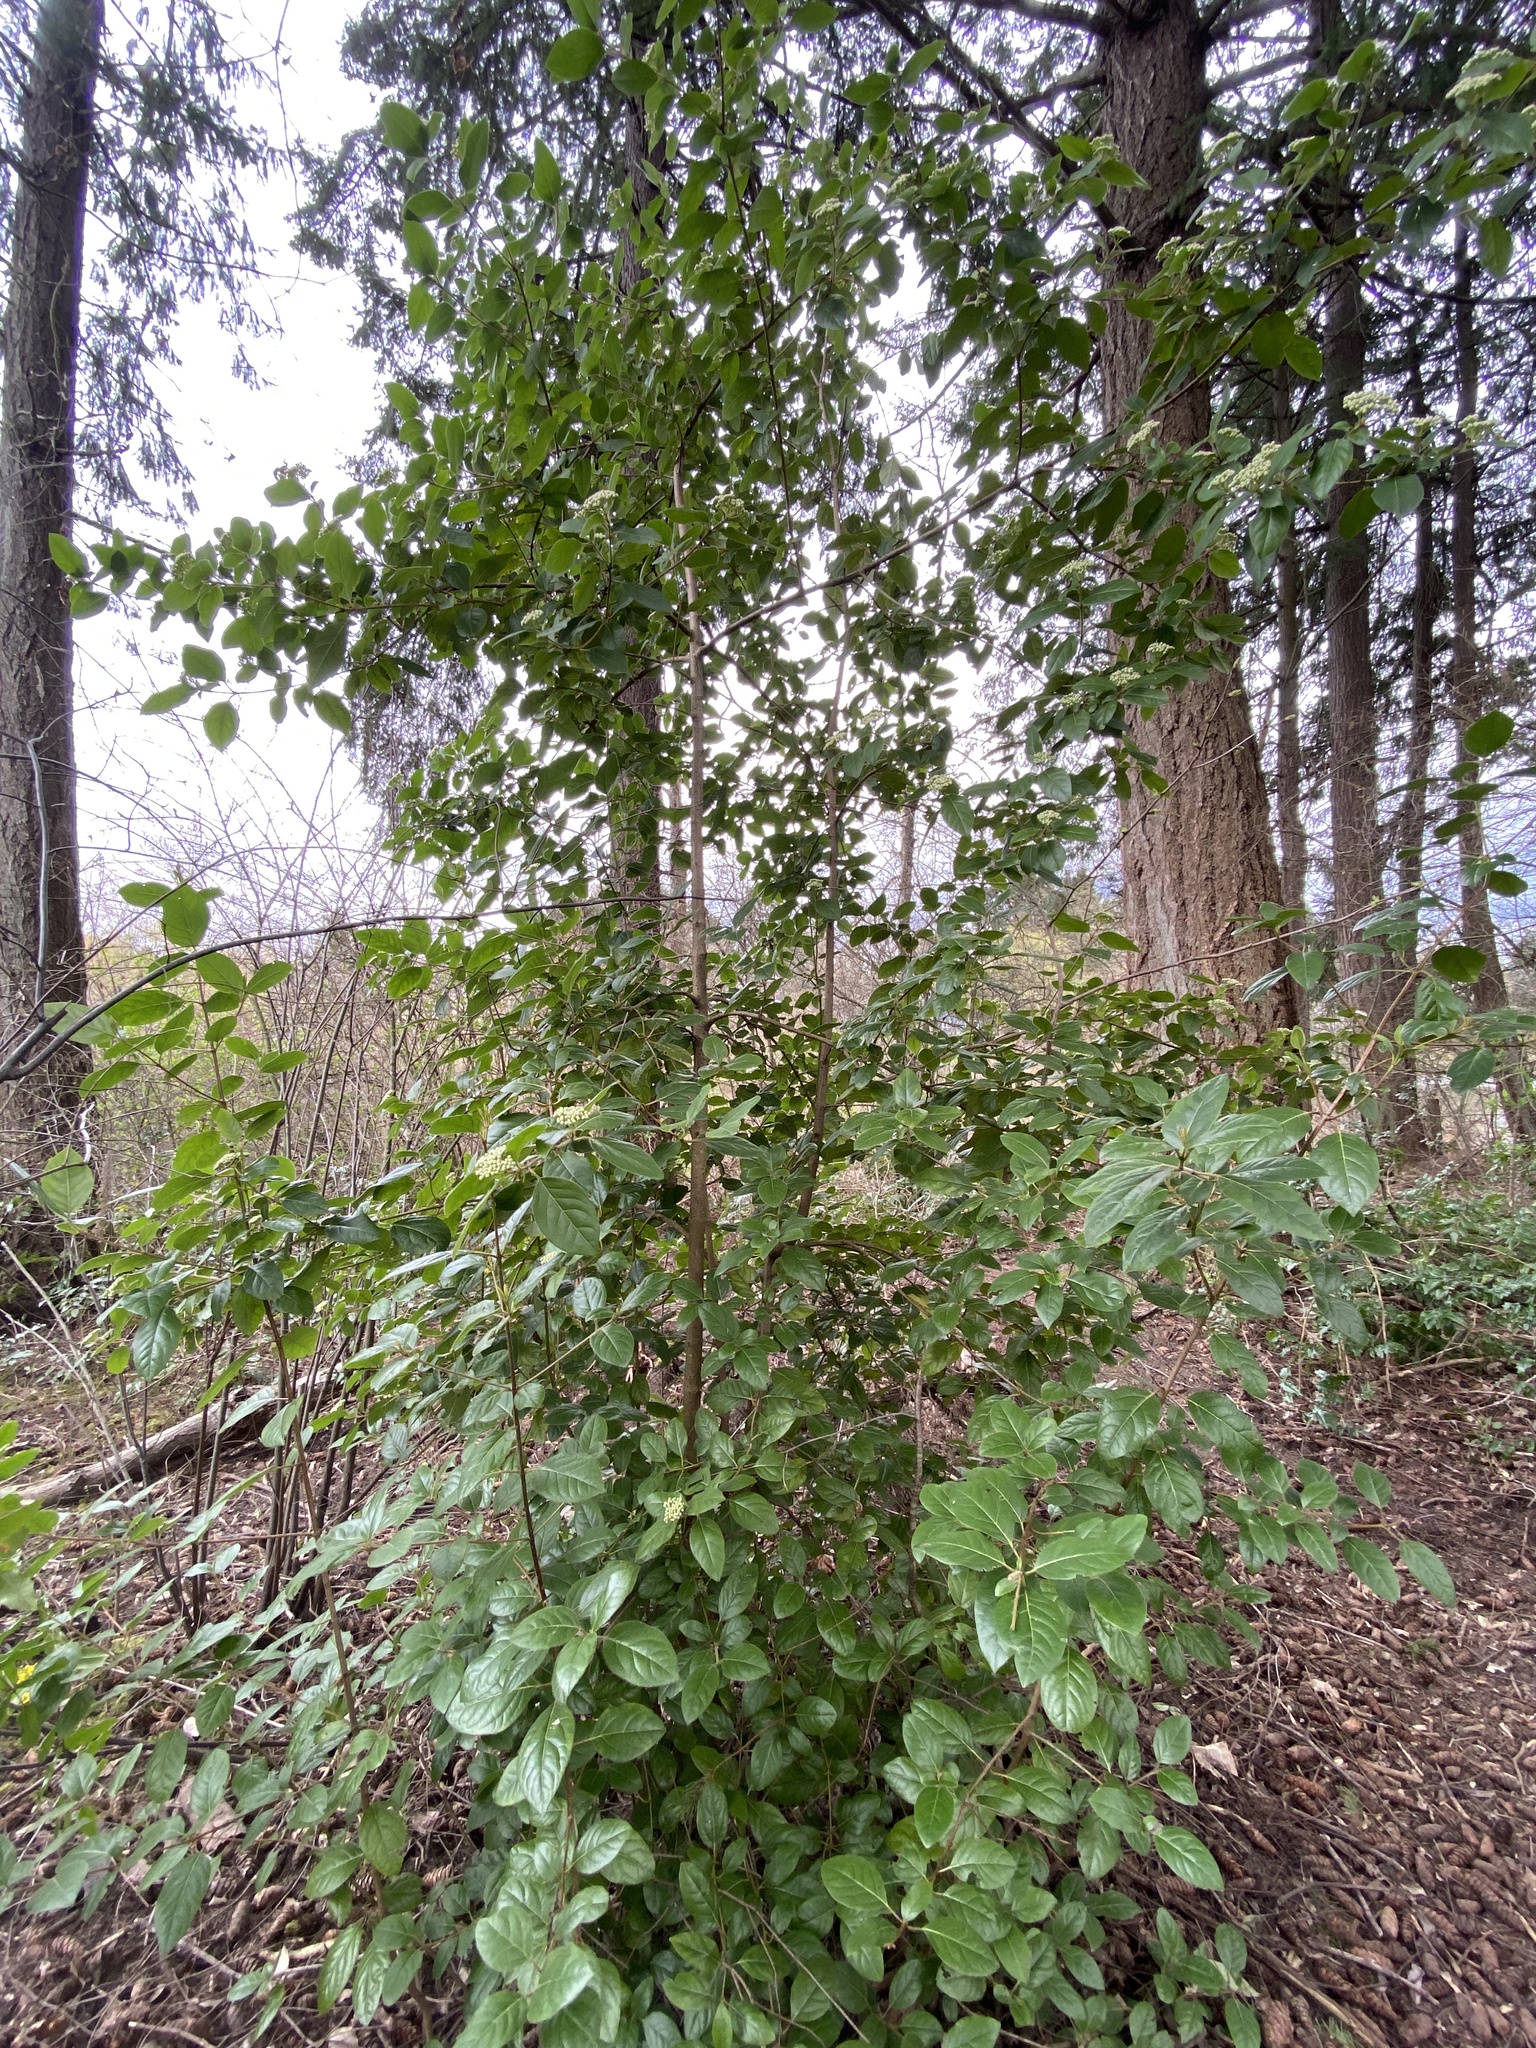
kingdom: Plantae
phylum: Tracheophyta
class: Magnoliopsida
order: Dipsacales
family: Viburnaceae
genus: Viburnum
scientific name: Viburnum tinus
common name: Laurustinus
